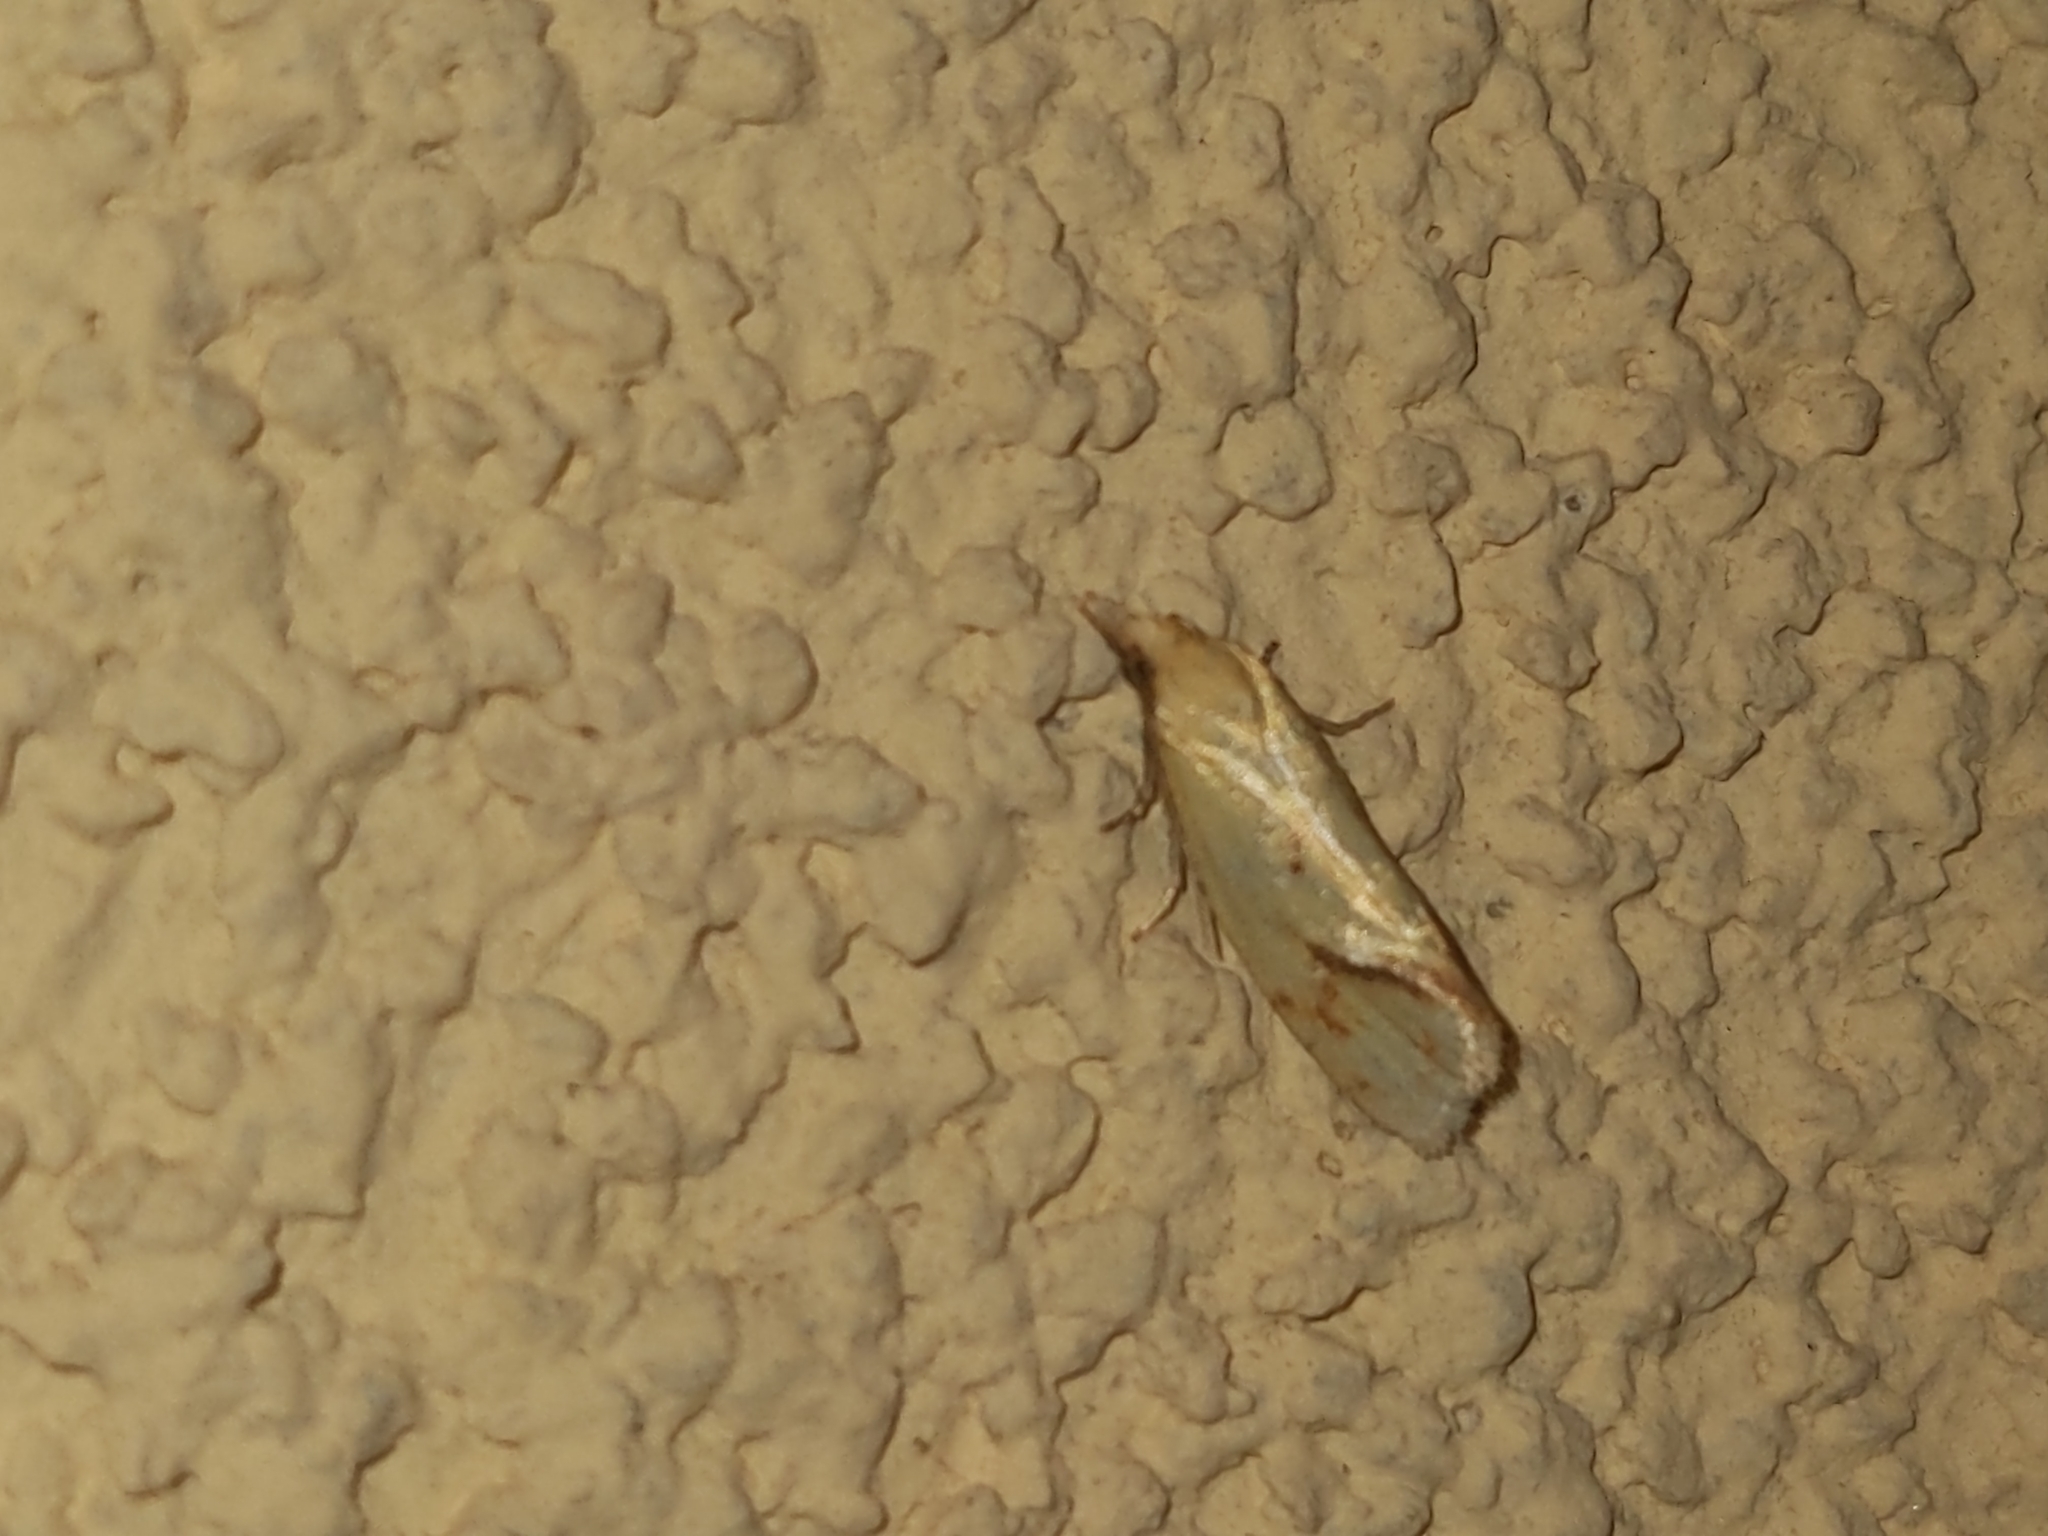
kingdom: Animalia
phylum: Arthropoda
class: Insecta
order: Lepidoptera
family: Tortricidae
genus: Agapeta
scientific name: Agapeta hamana
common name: Common yellow conch
